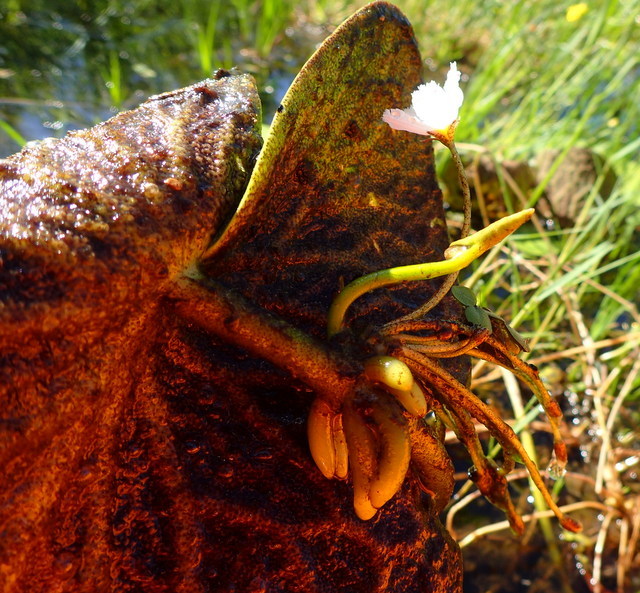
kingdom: Plantae
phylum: Tracheophyta
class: Magnoliopsida
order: Asterales
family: Menyanthaceae
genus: Nymphoides
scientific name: Nymphoides aquatica
